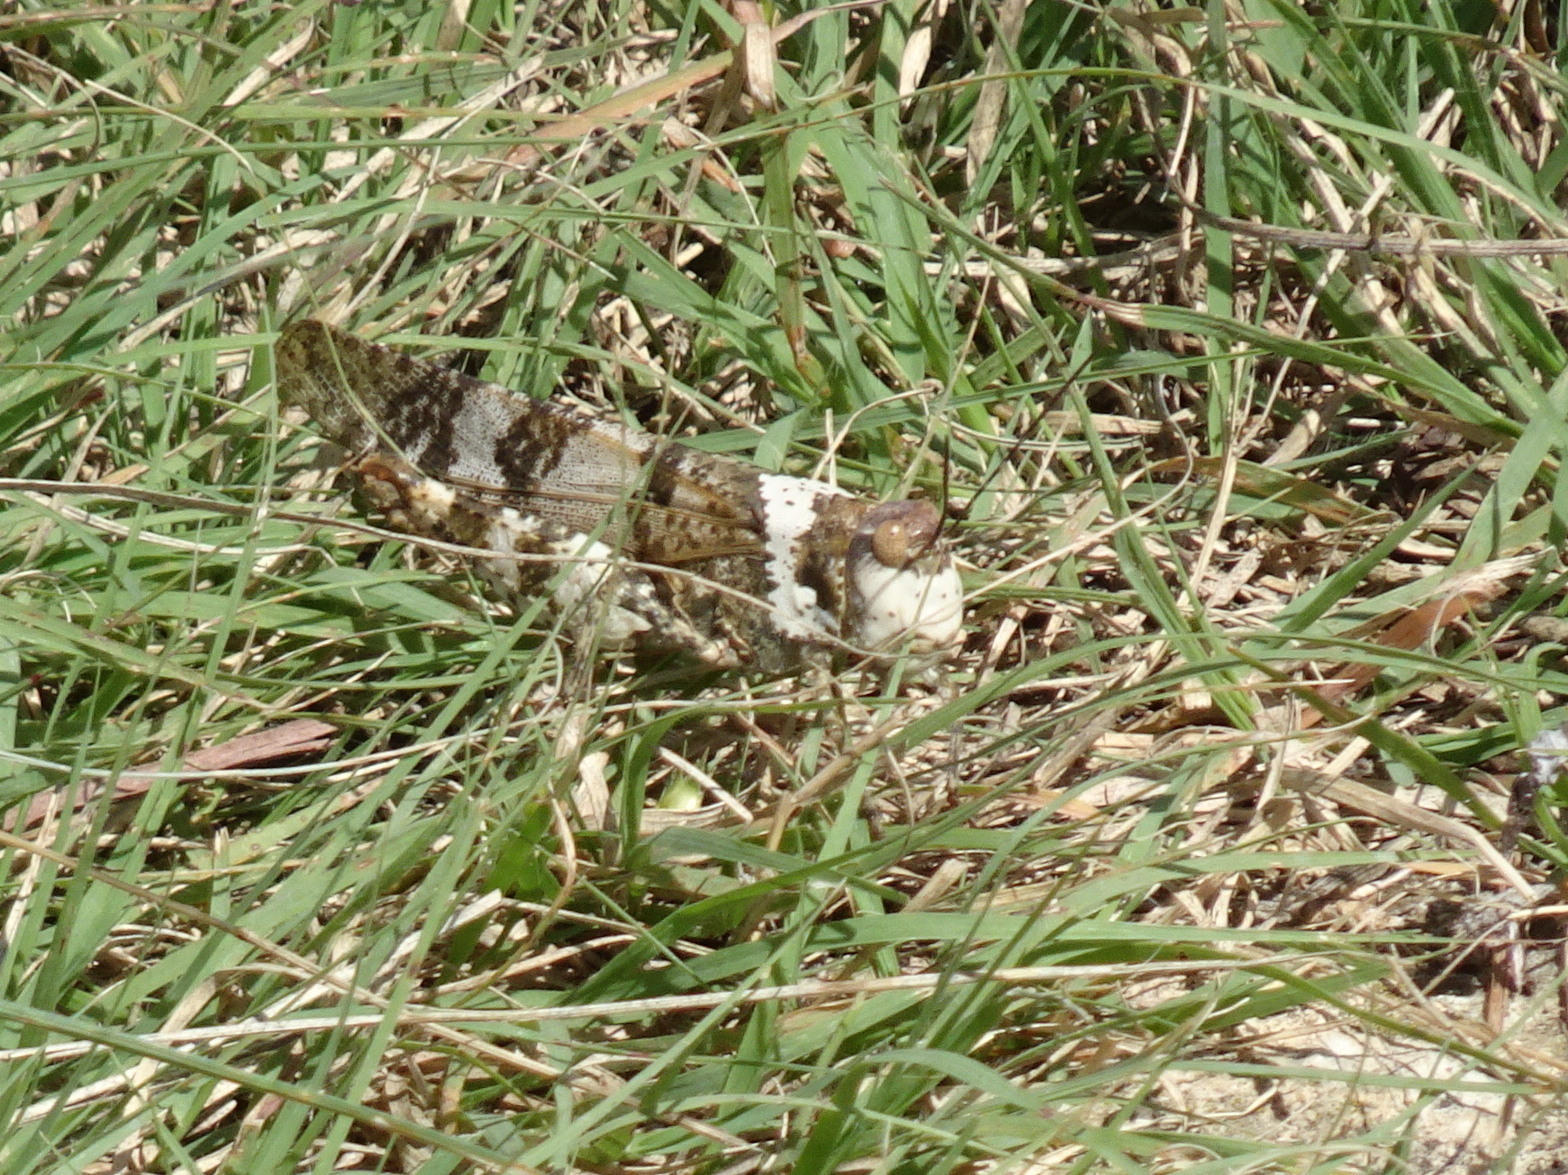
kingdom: Animalia
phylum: Arthropoda
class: Insecta
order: Orthoptera
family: Acrididae
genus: Spharagemon
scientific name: Spharagemon equale
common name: Orange-legged grasshopper
